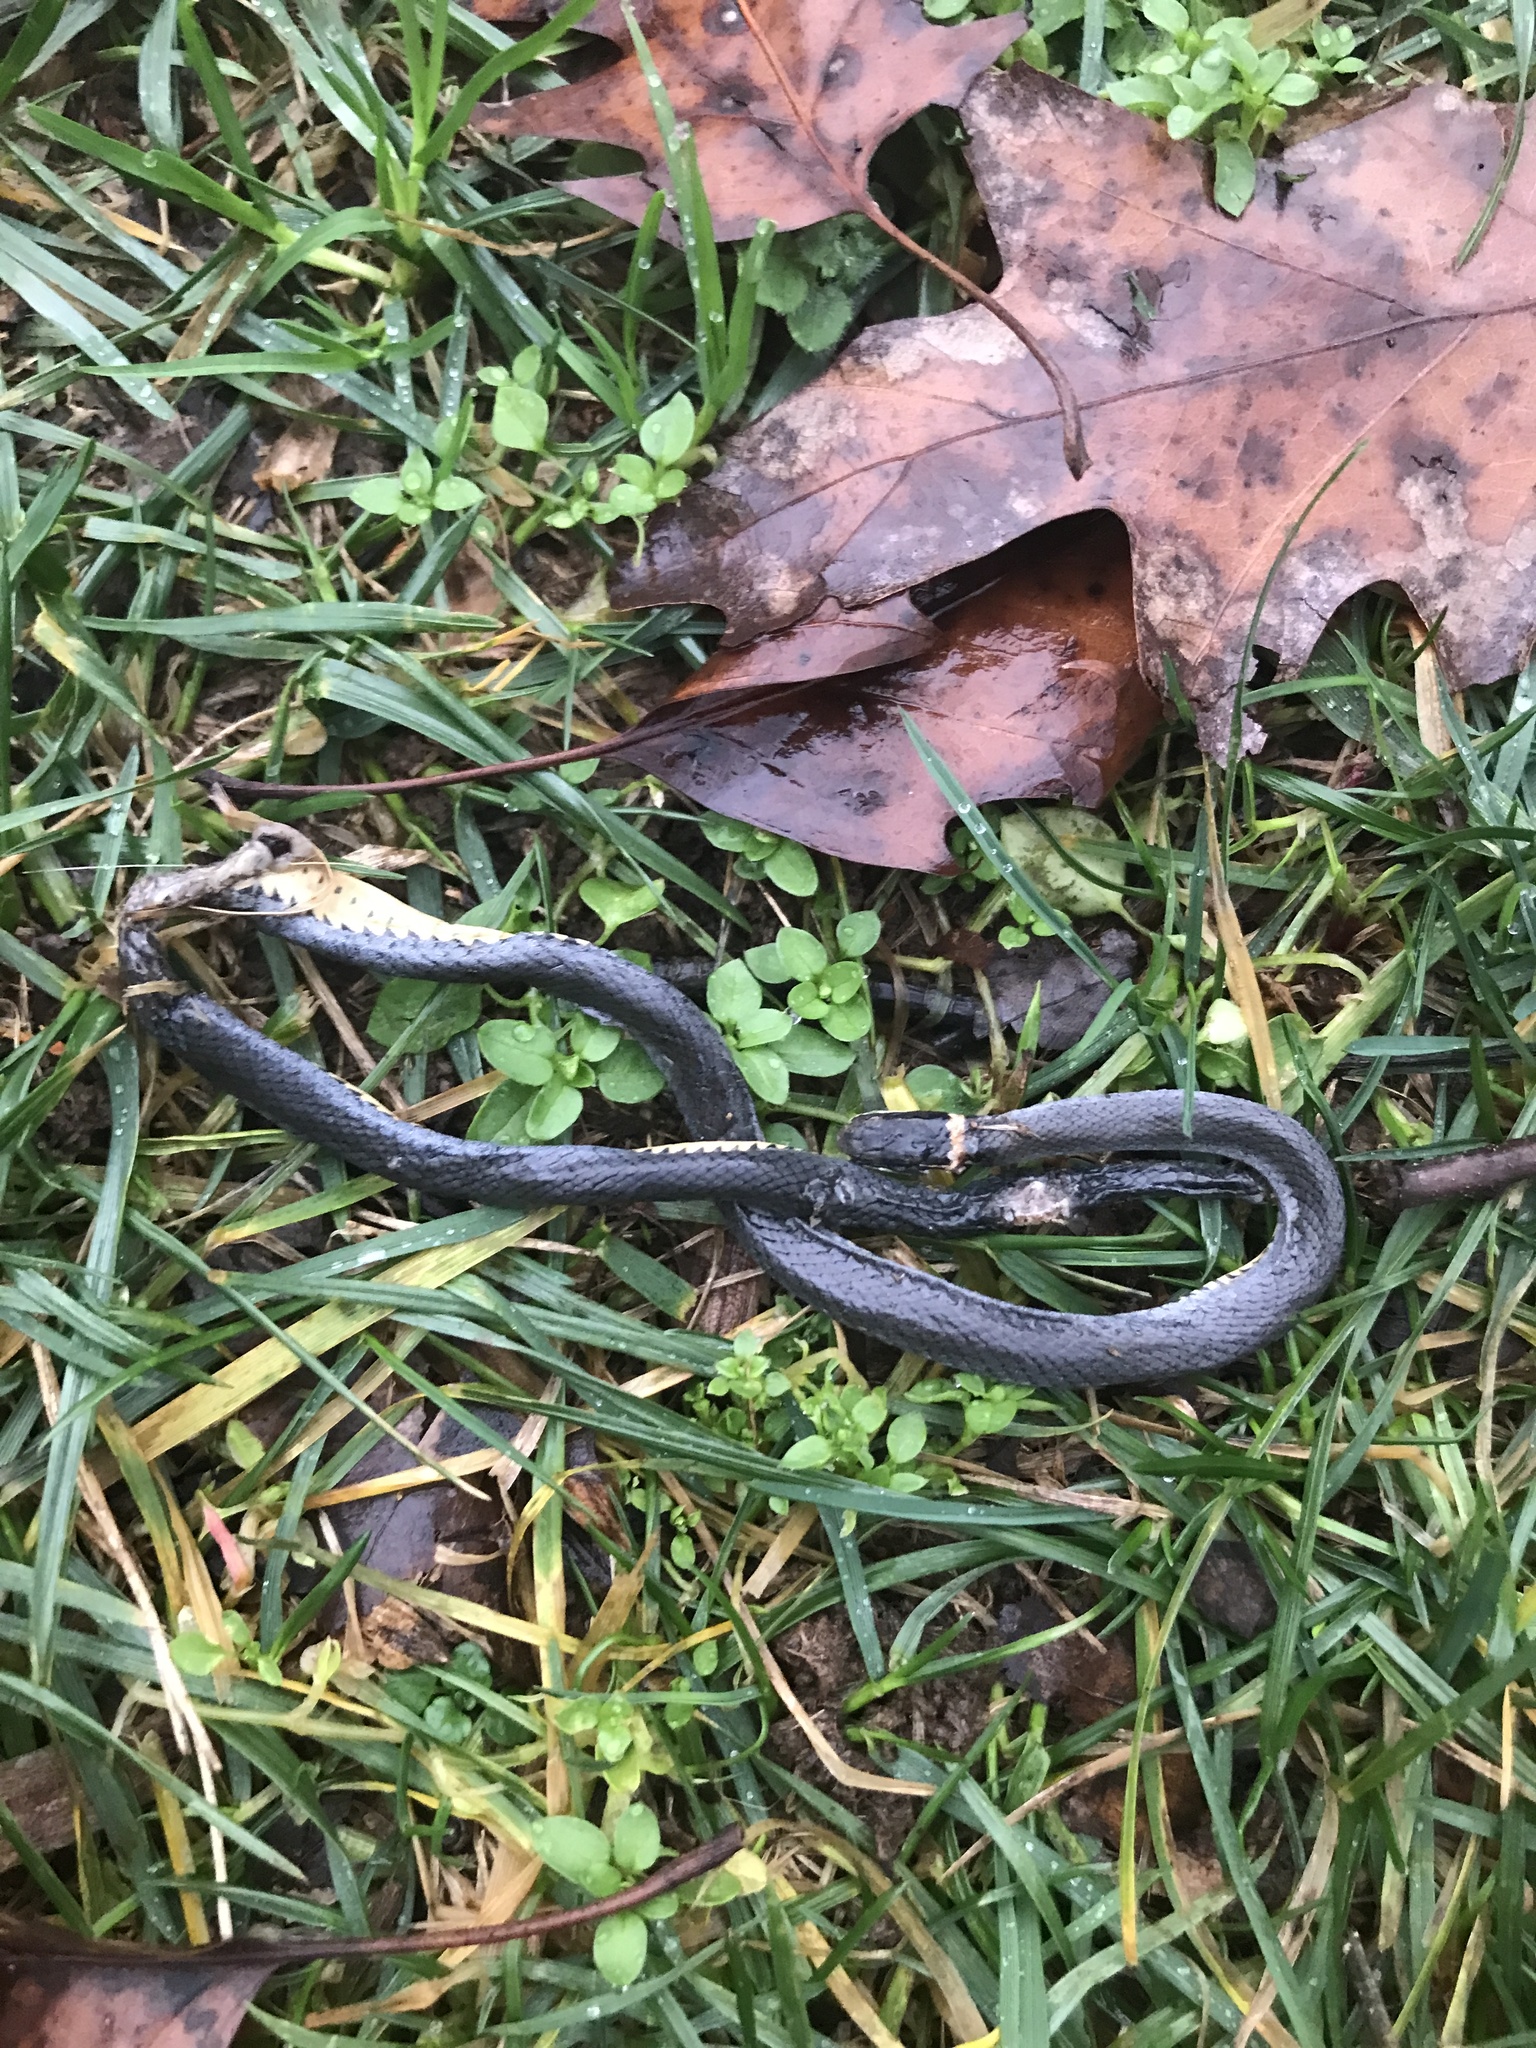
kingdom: Animalia
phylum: Chordata
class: Squamata
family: Colubridae
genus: Diadophis
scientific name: Diadophis punctatus
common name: Ringneck snake
